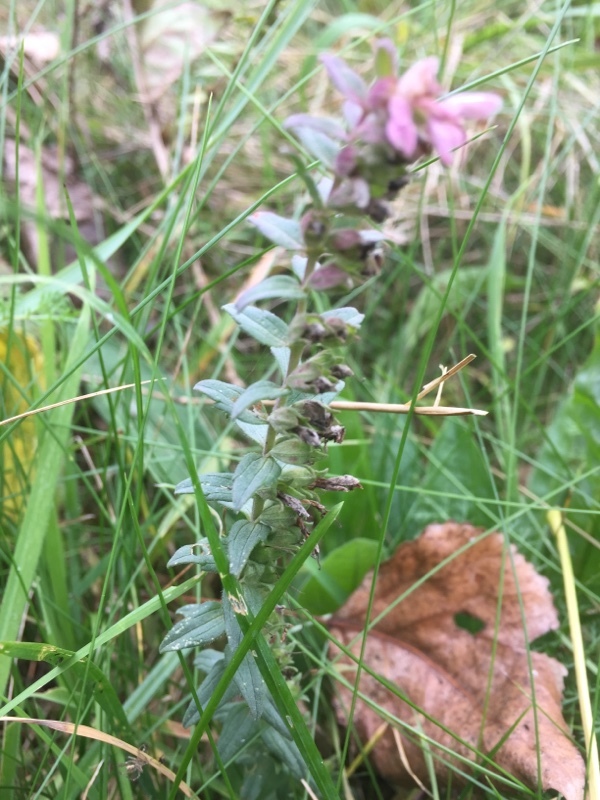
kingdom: Plantae
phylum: Tracheophyta
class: Magnoliopsida
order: Lamiales
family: Orobanchaceae
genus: Odontites
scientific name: Odontites vernus
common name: Red bartsia
